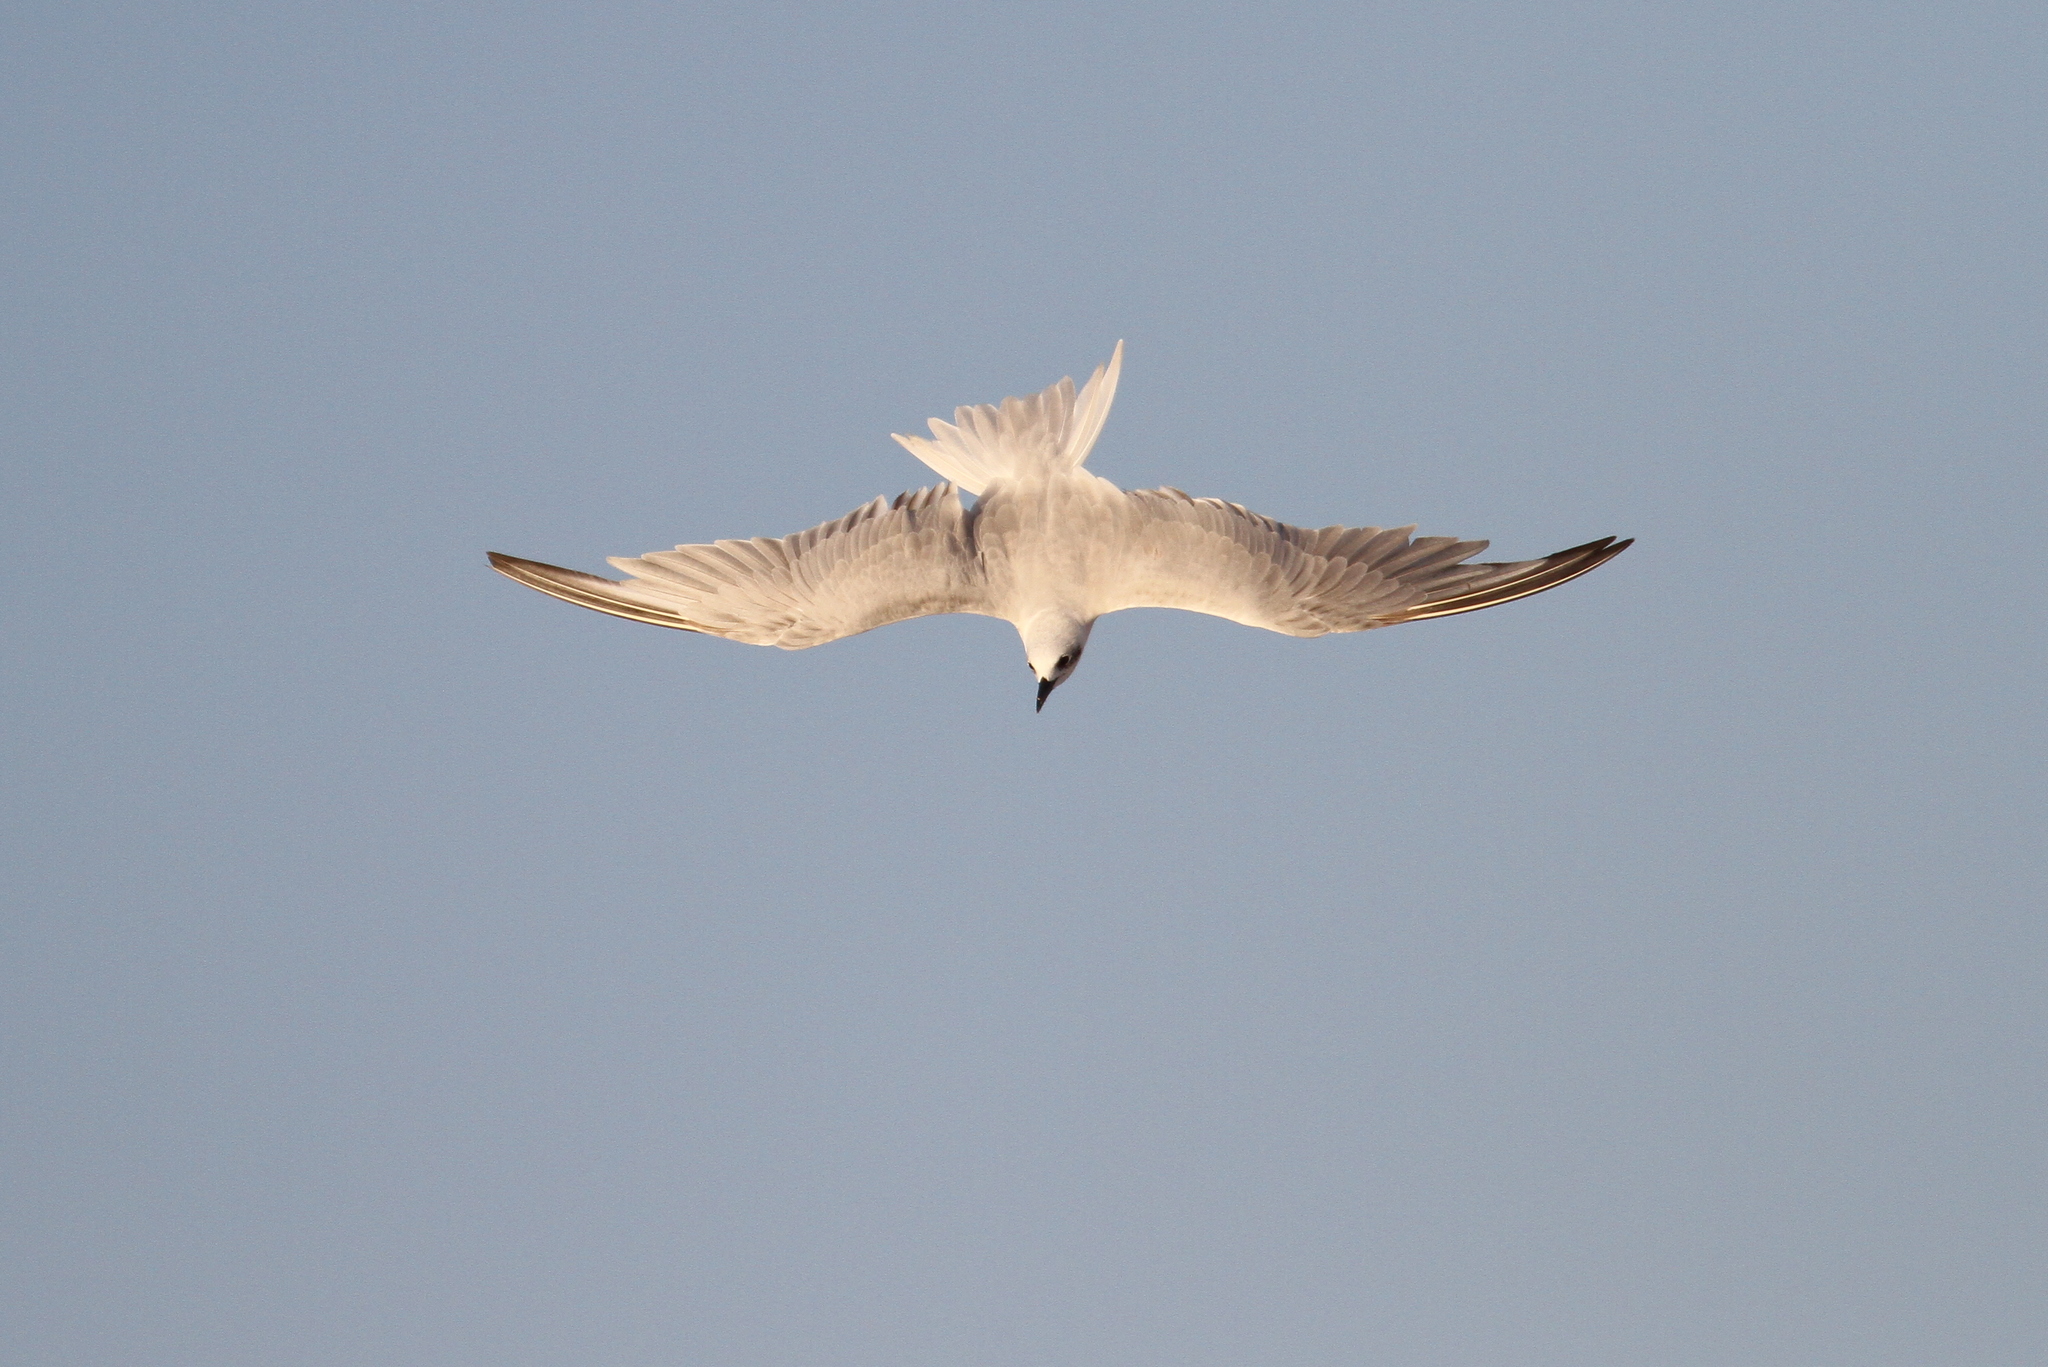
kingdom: Animalia
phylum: Chordata
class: Aves
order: Charadriiformes
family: Laridae
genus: Gelochelidon
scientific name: Gelochelidon nilotica
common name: Gull-billed tern
